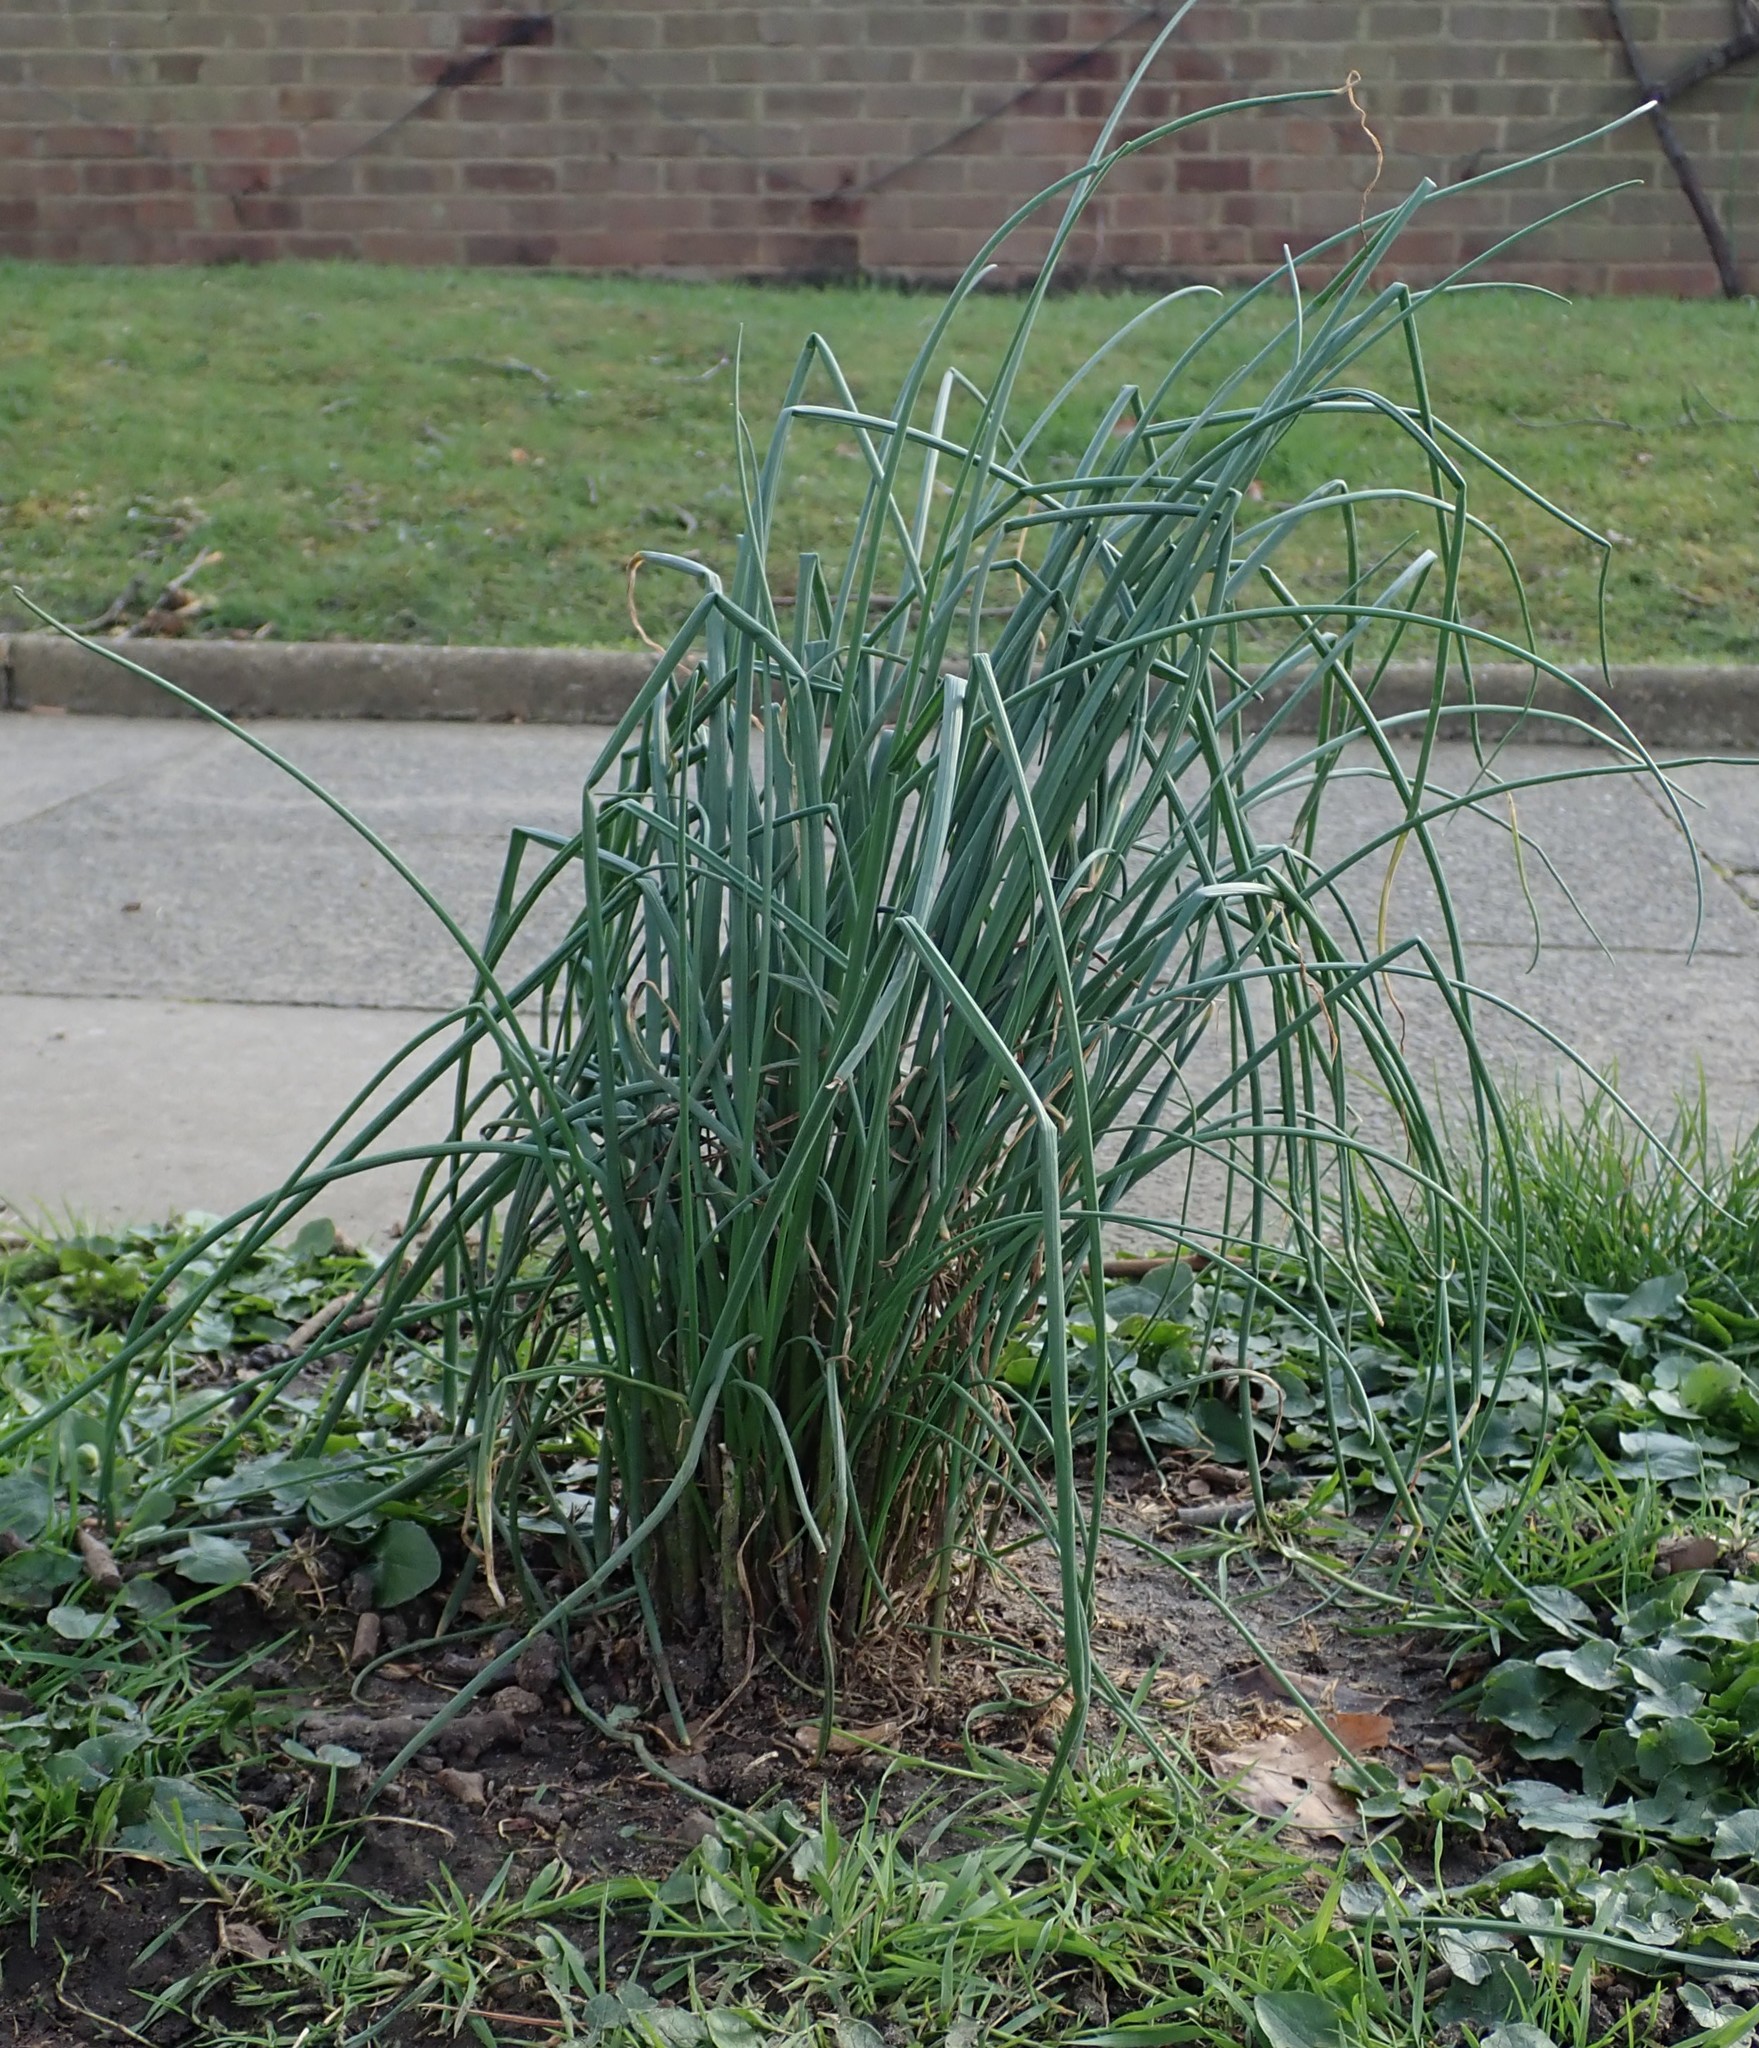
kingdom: Plantae
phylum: Tracheophyta
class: Liliopsida
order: Asparagales
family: Amaryllidaceae
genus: Allium
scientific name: Allium vineale
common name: Crow garlic
